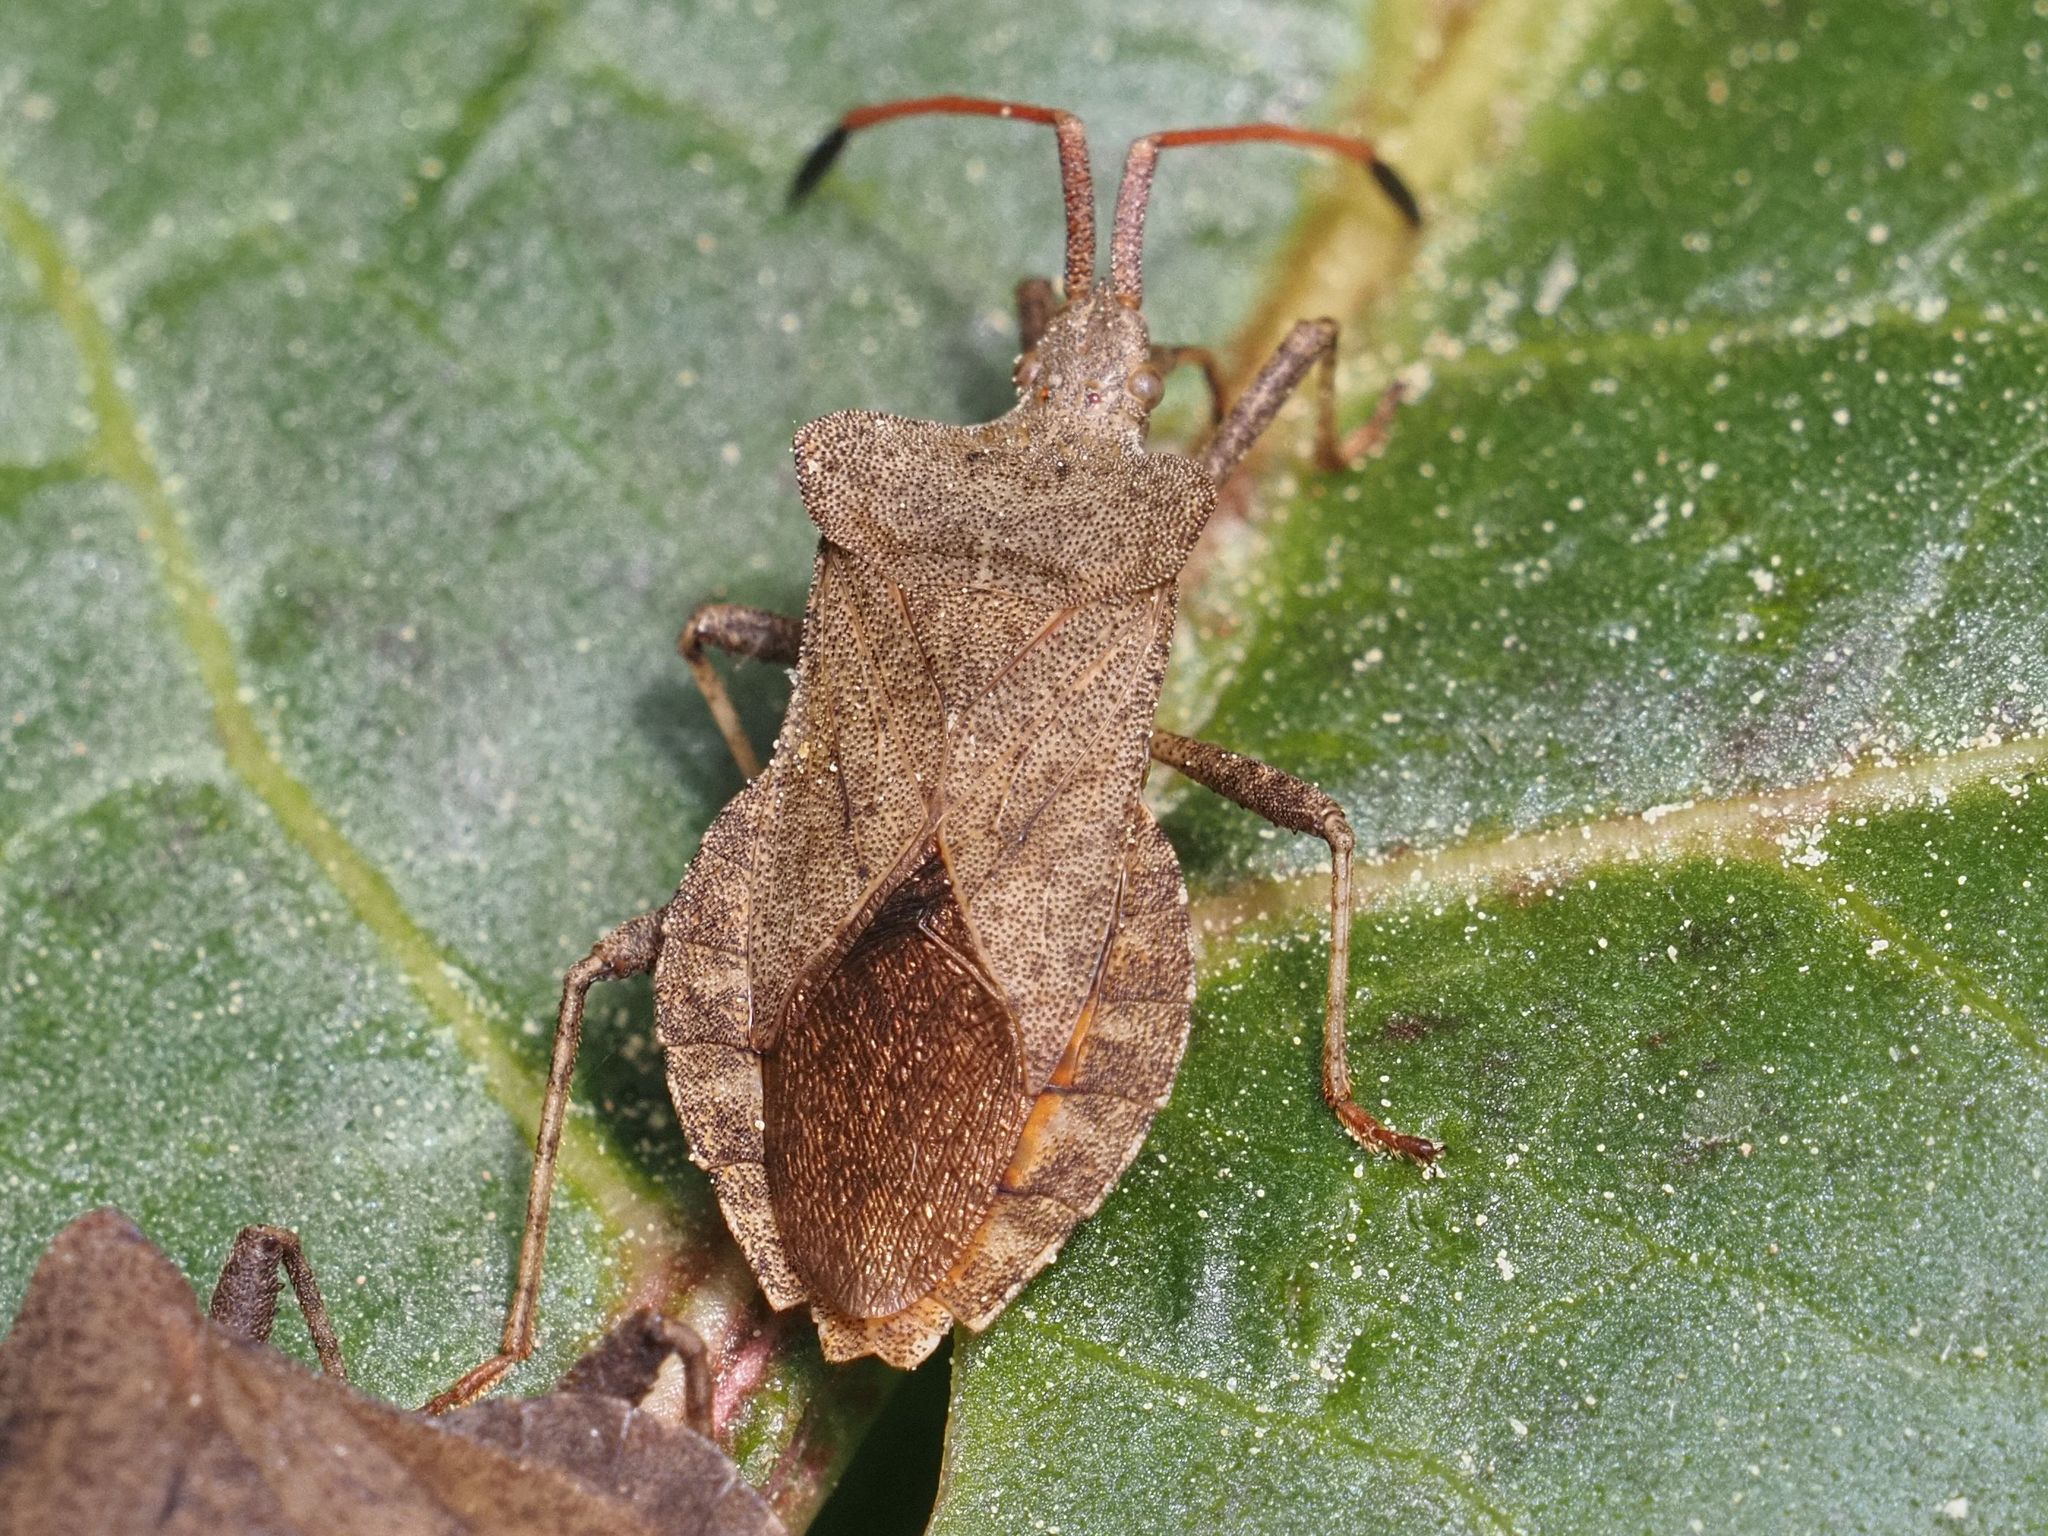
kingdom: Animalia
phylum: Arthropoda
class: Insecta
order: Hemiptera
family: Coreidae
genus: Coreus
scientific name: Coreus marginatus
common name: Dock bug
